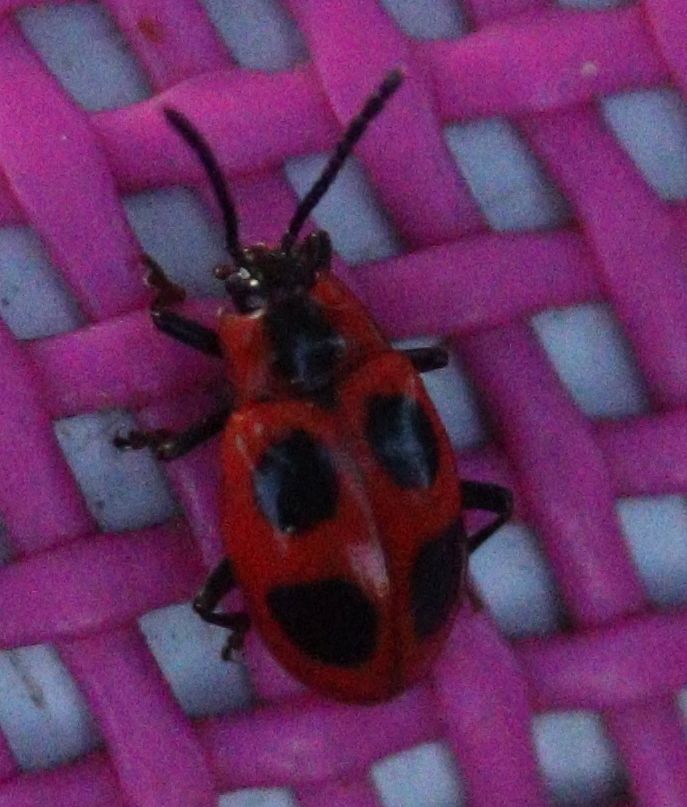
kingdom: Animalia
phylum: Arthropoda
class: Insecta
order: Coleoptera
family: Endomychidae
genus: Endomychus
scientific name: Endomychus coccineus
